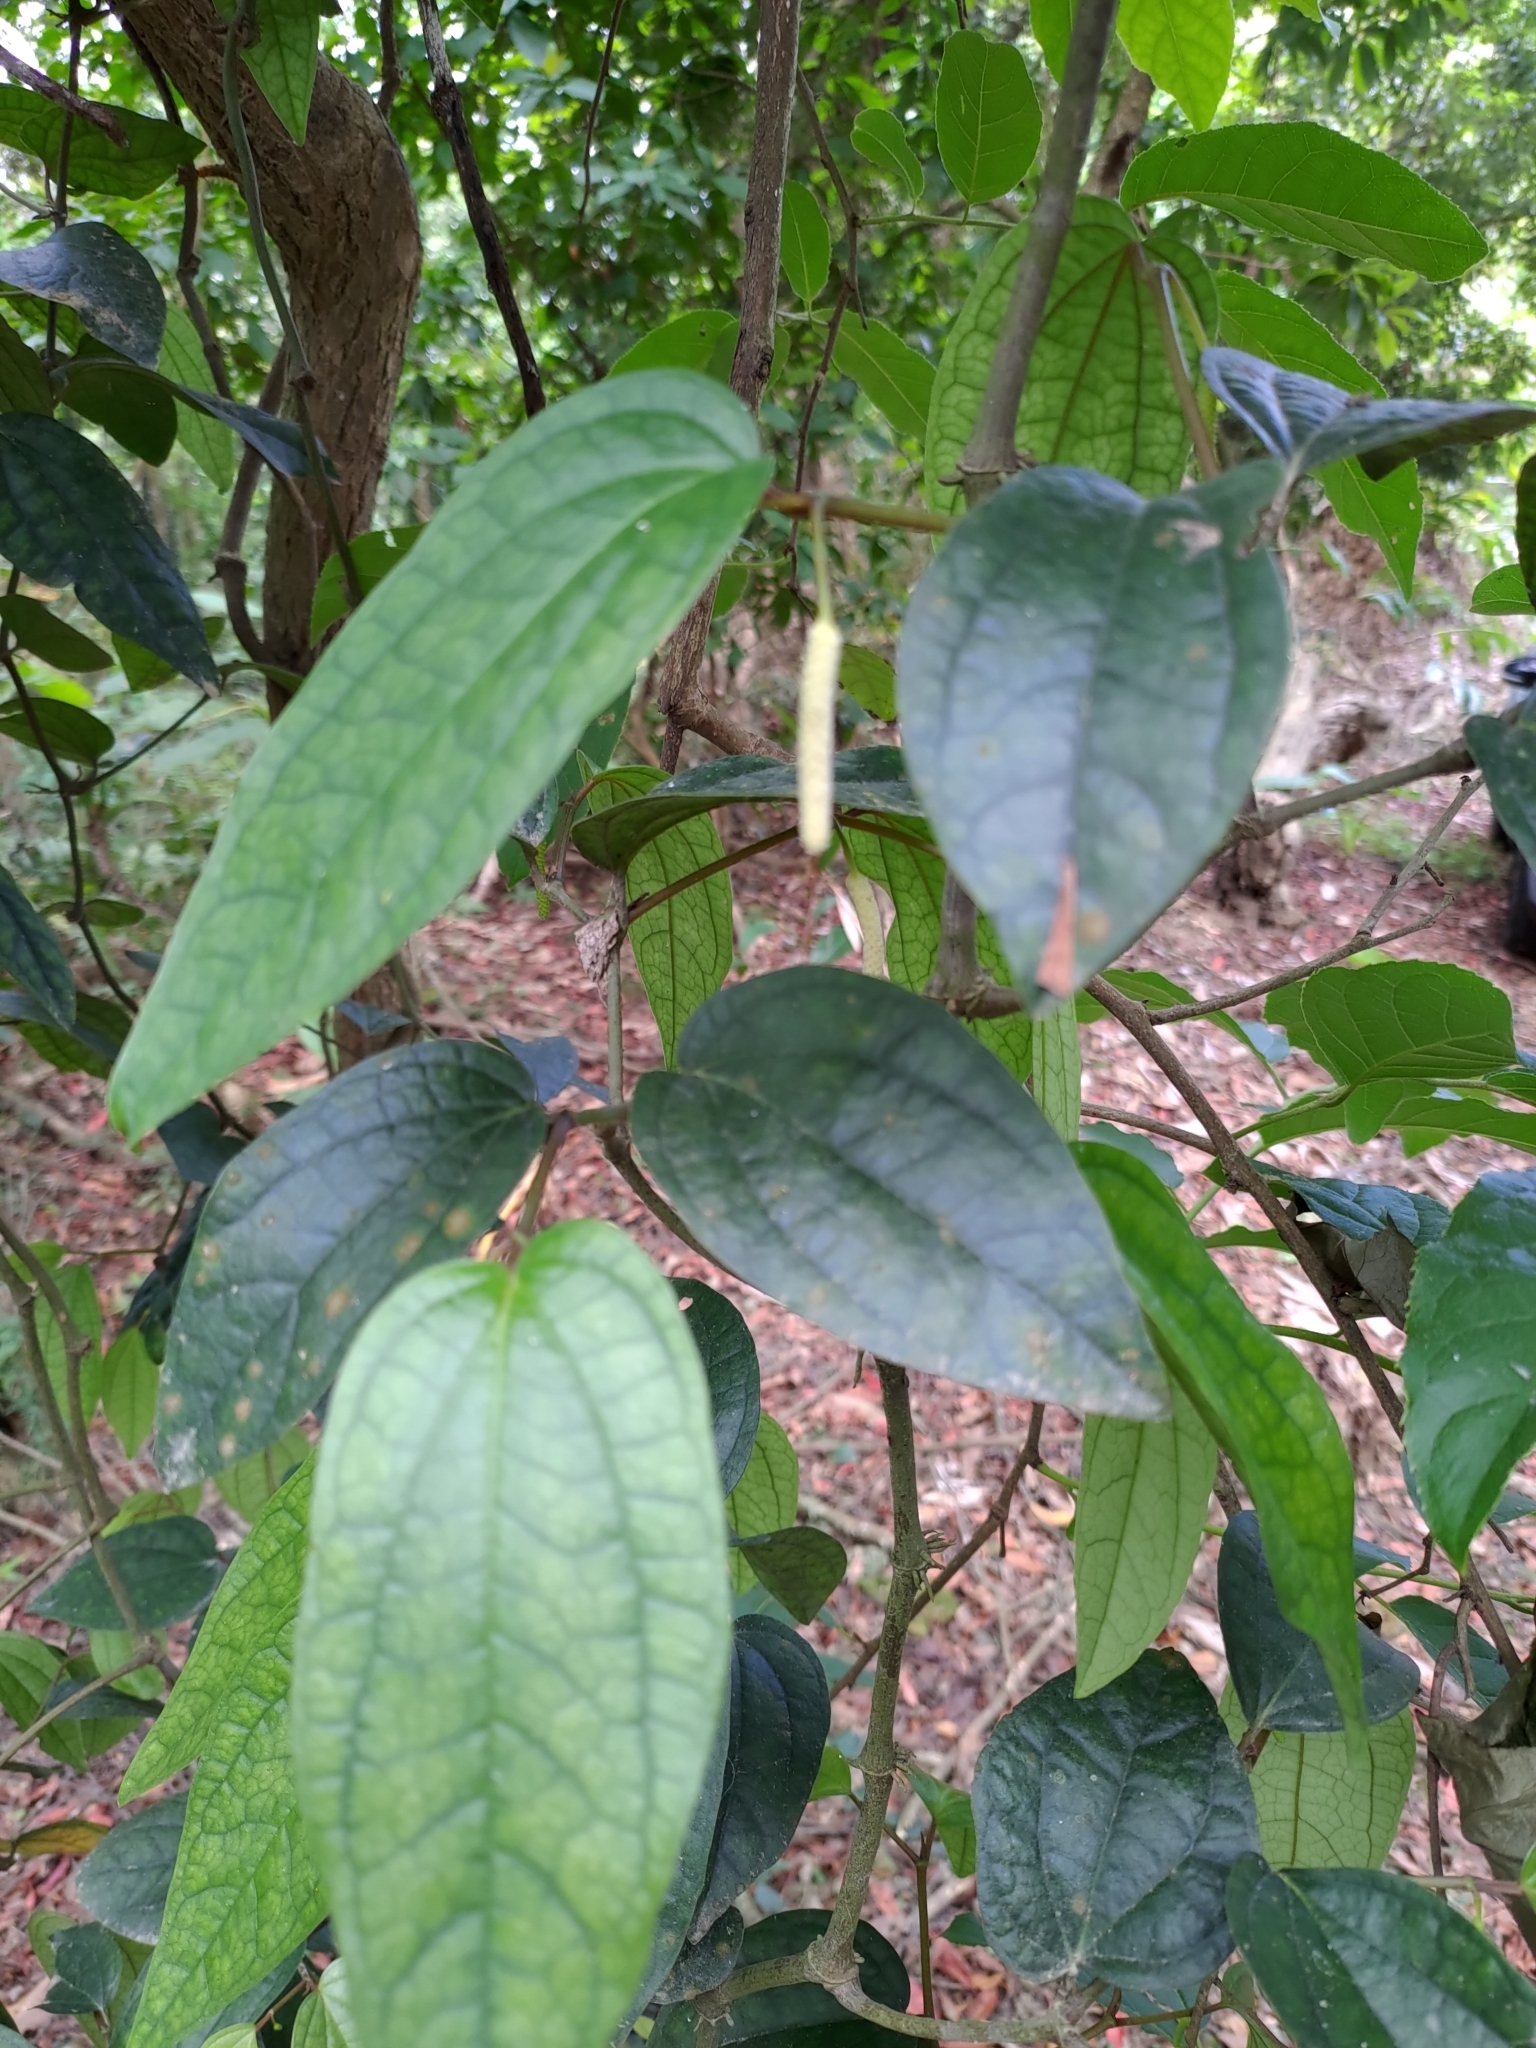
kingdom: Plantae
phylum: Tracheophyta
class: Magnoliopsida
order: Piperales
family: Piperaceae
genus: Piper
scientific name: Piper taiwanense
